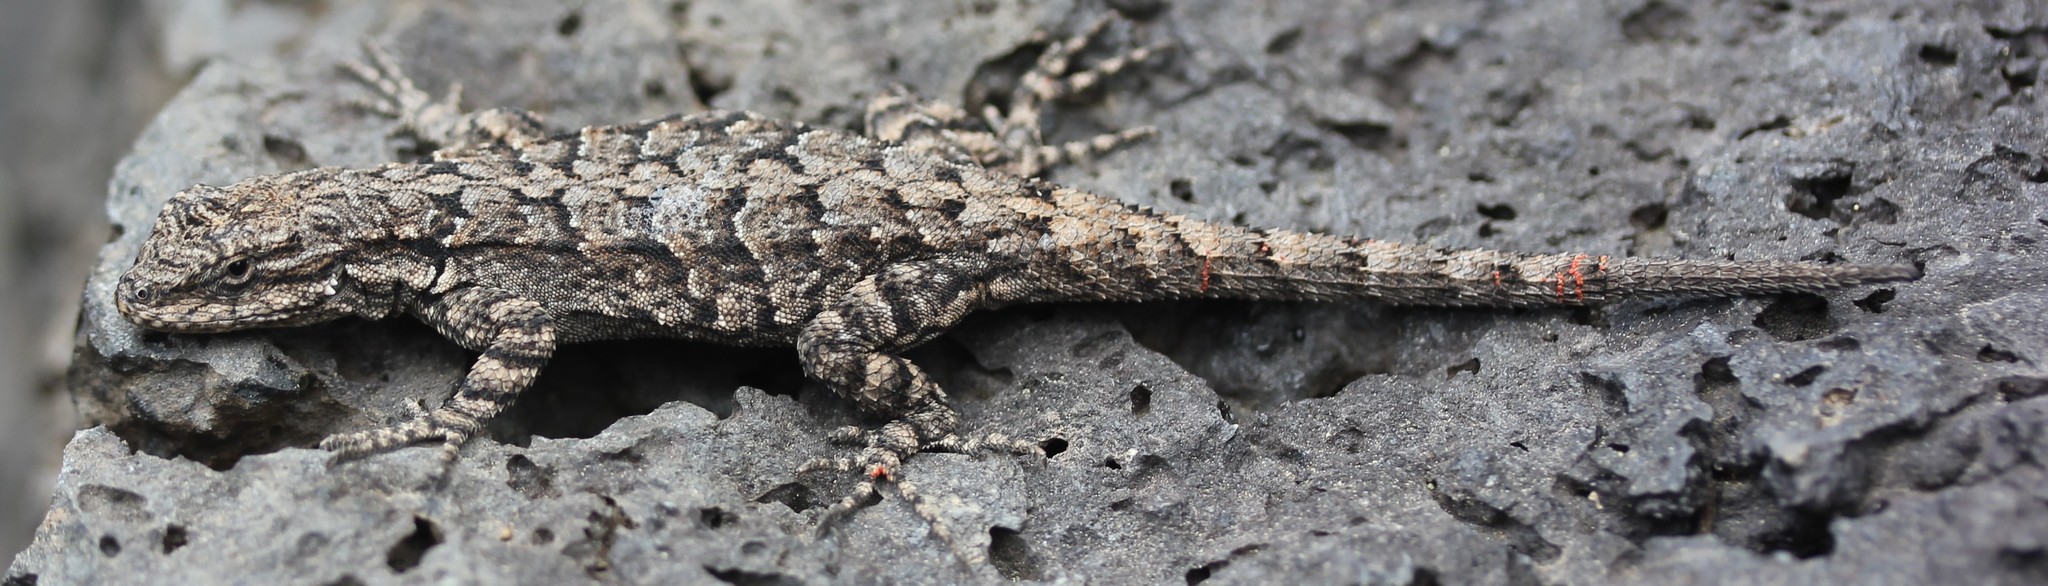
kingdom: Animalia
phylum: Chordata
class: Squamata
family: Phrynosomatidae
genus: Urosaurus
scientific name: Urosaurus ornatus
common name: Ornate tree lizard
